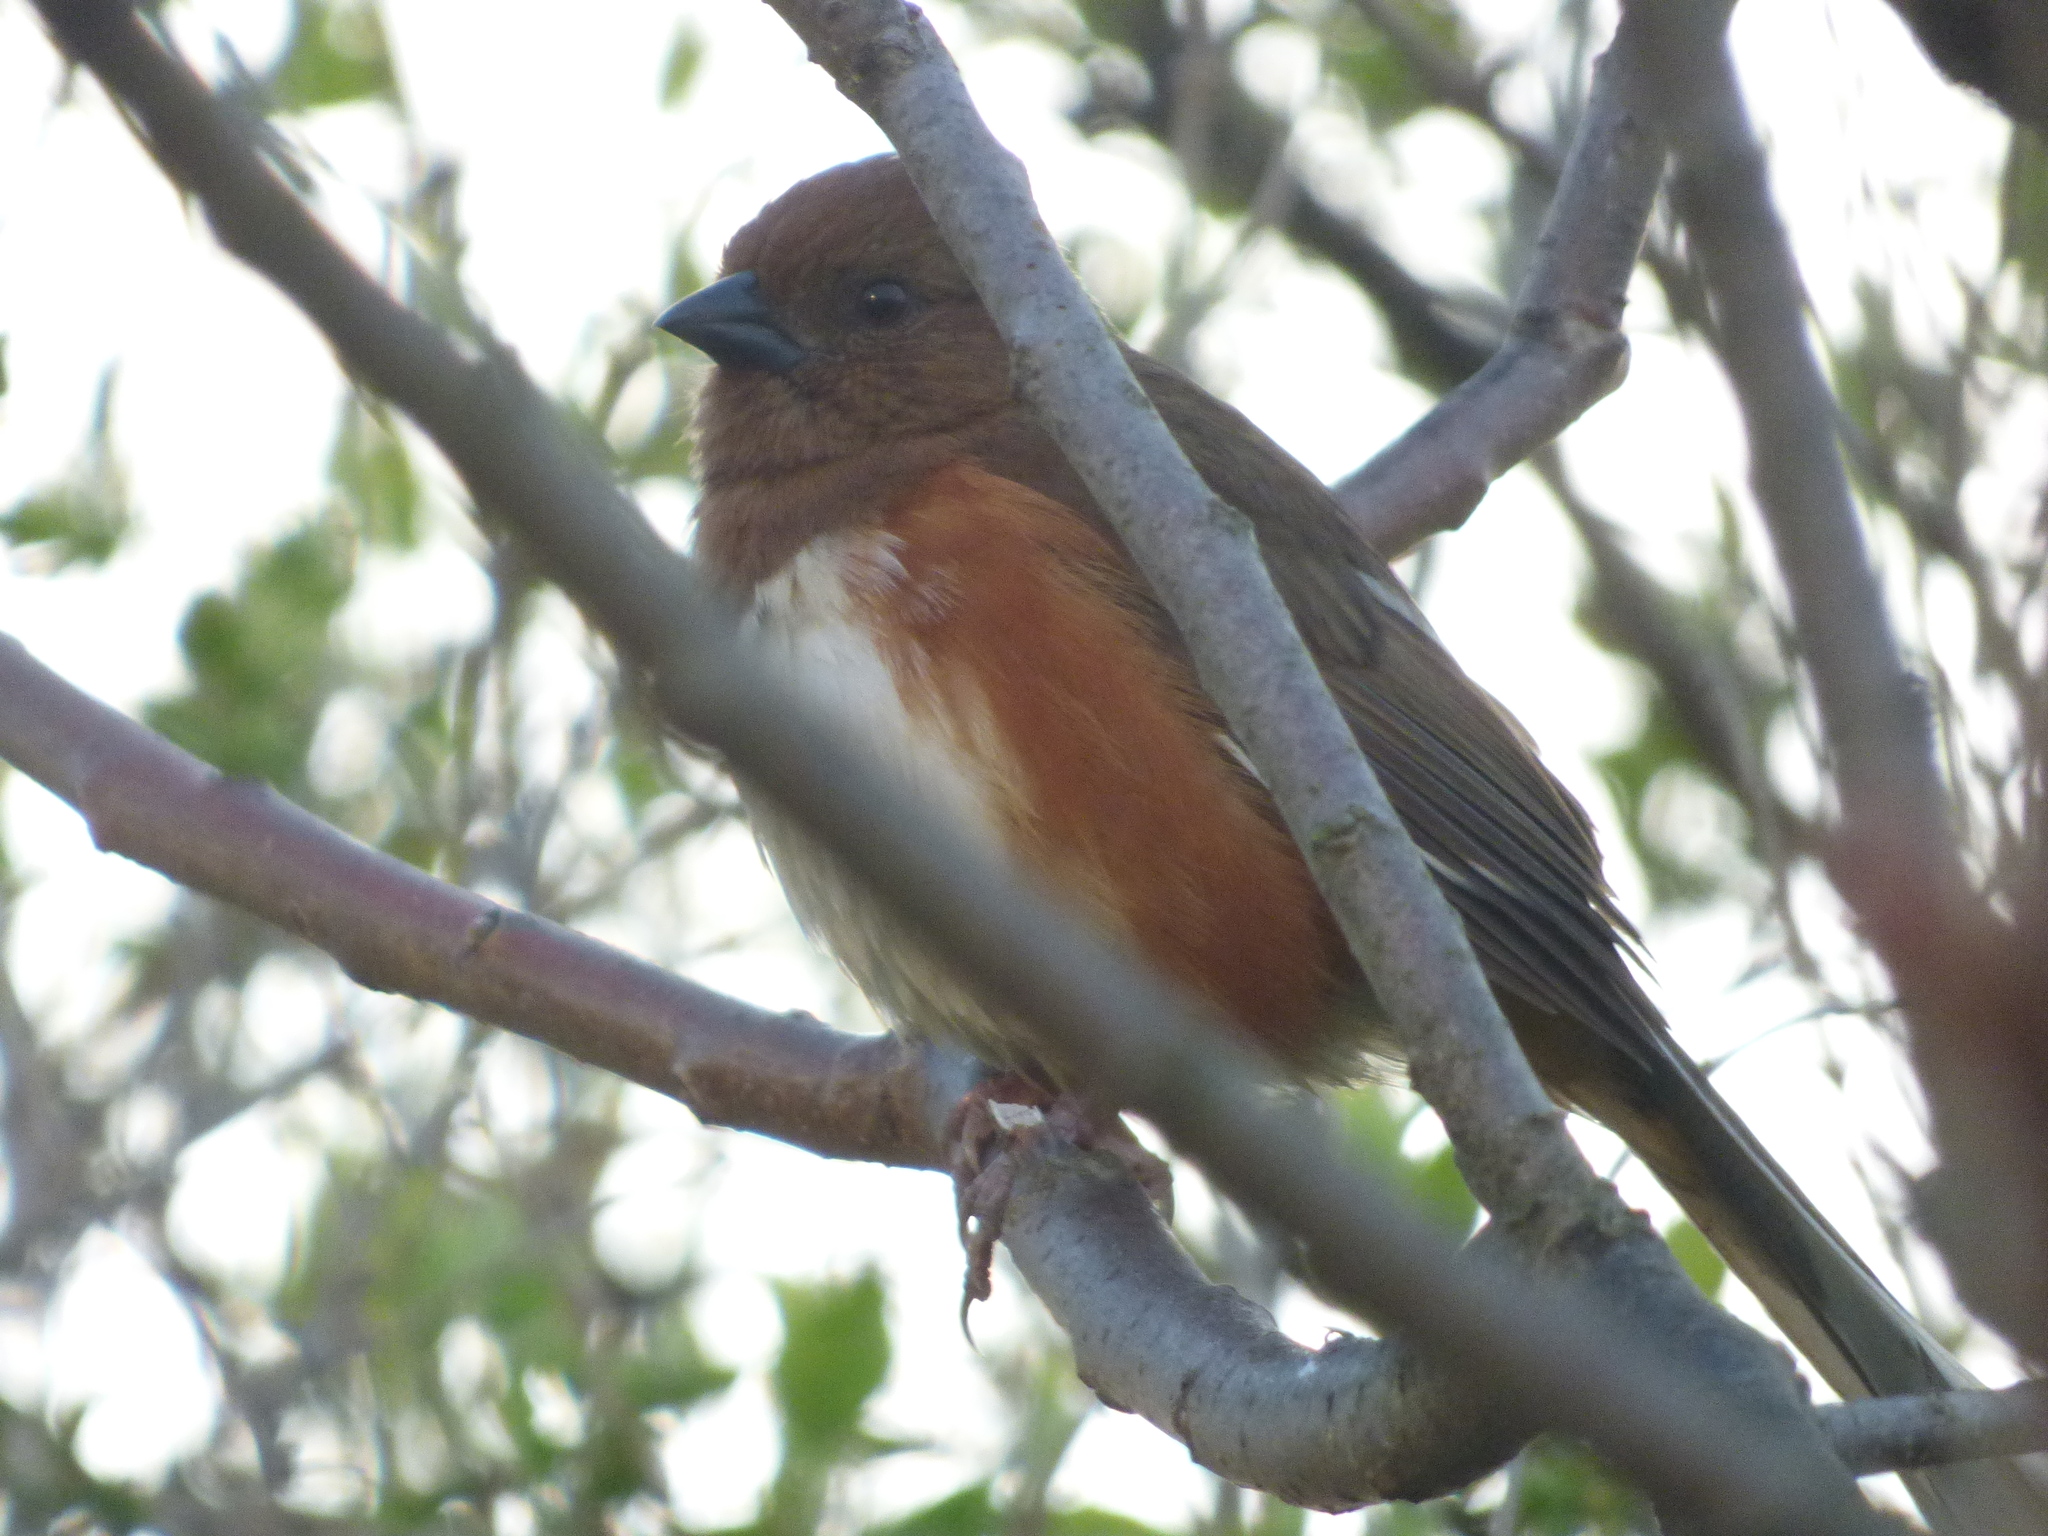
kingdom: Animalia
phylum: Chordata
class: Aves
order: Passeriformes
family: Passerellidae
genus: Pipilo
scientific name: Pipilo erythrophthalmus
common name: Eastern towhee
